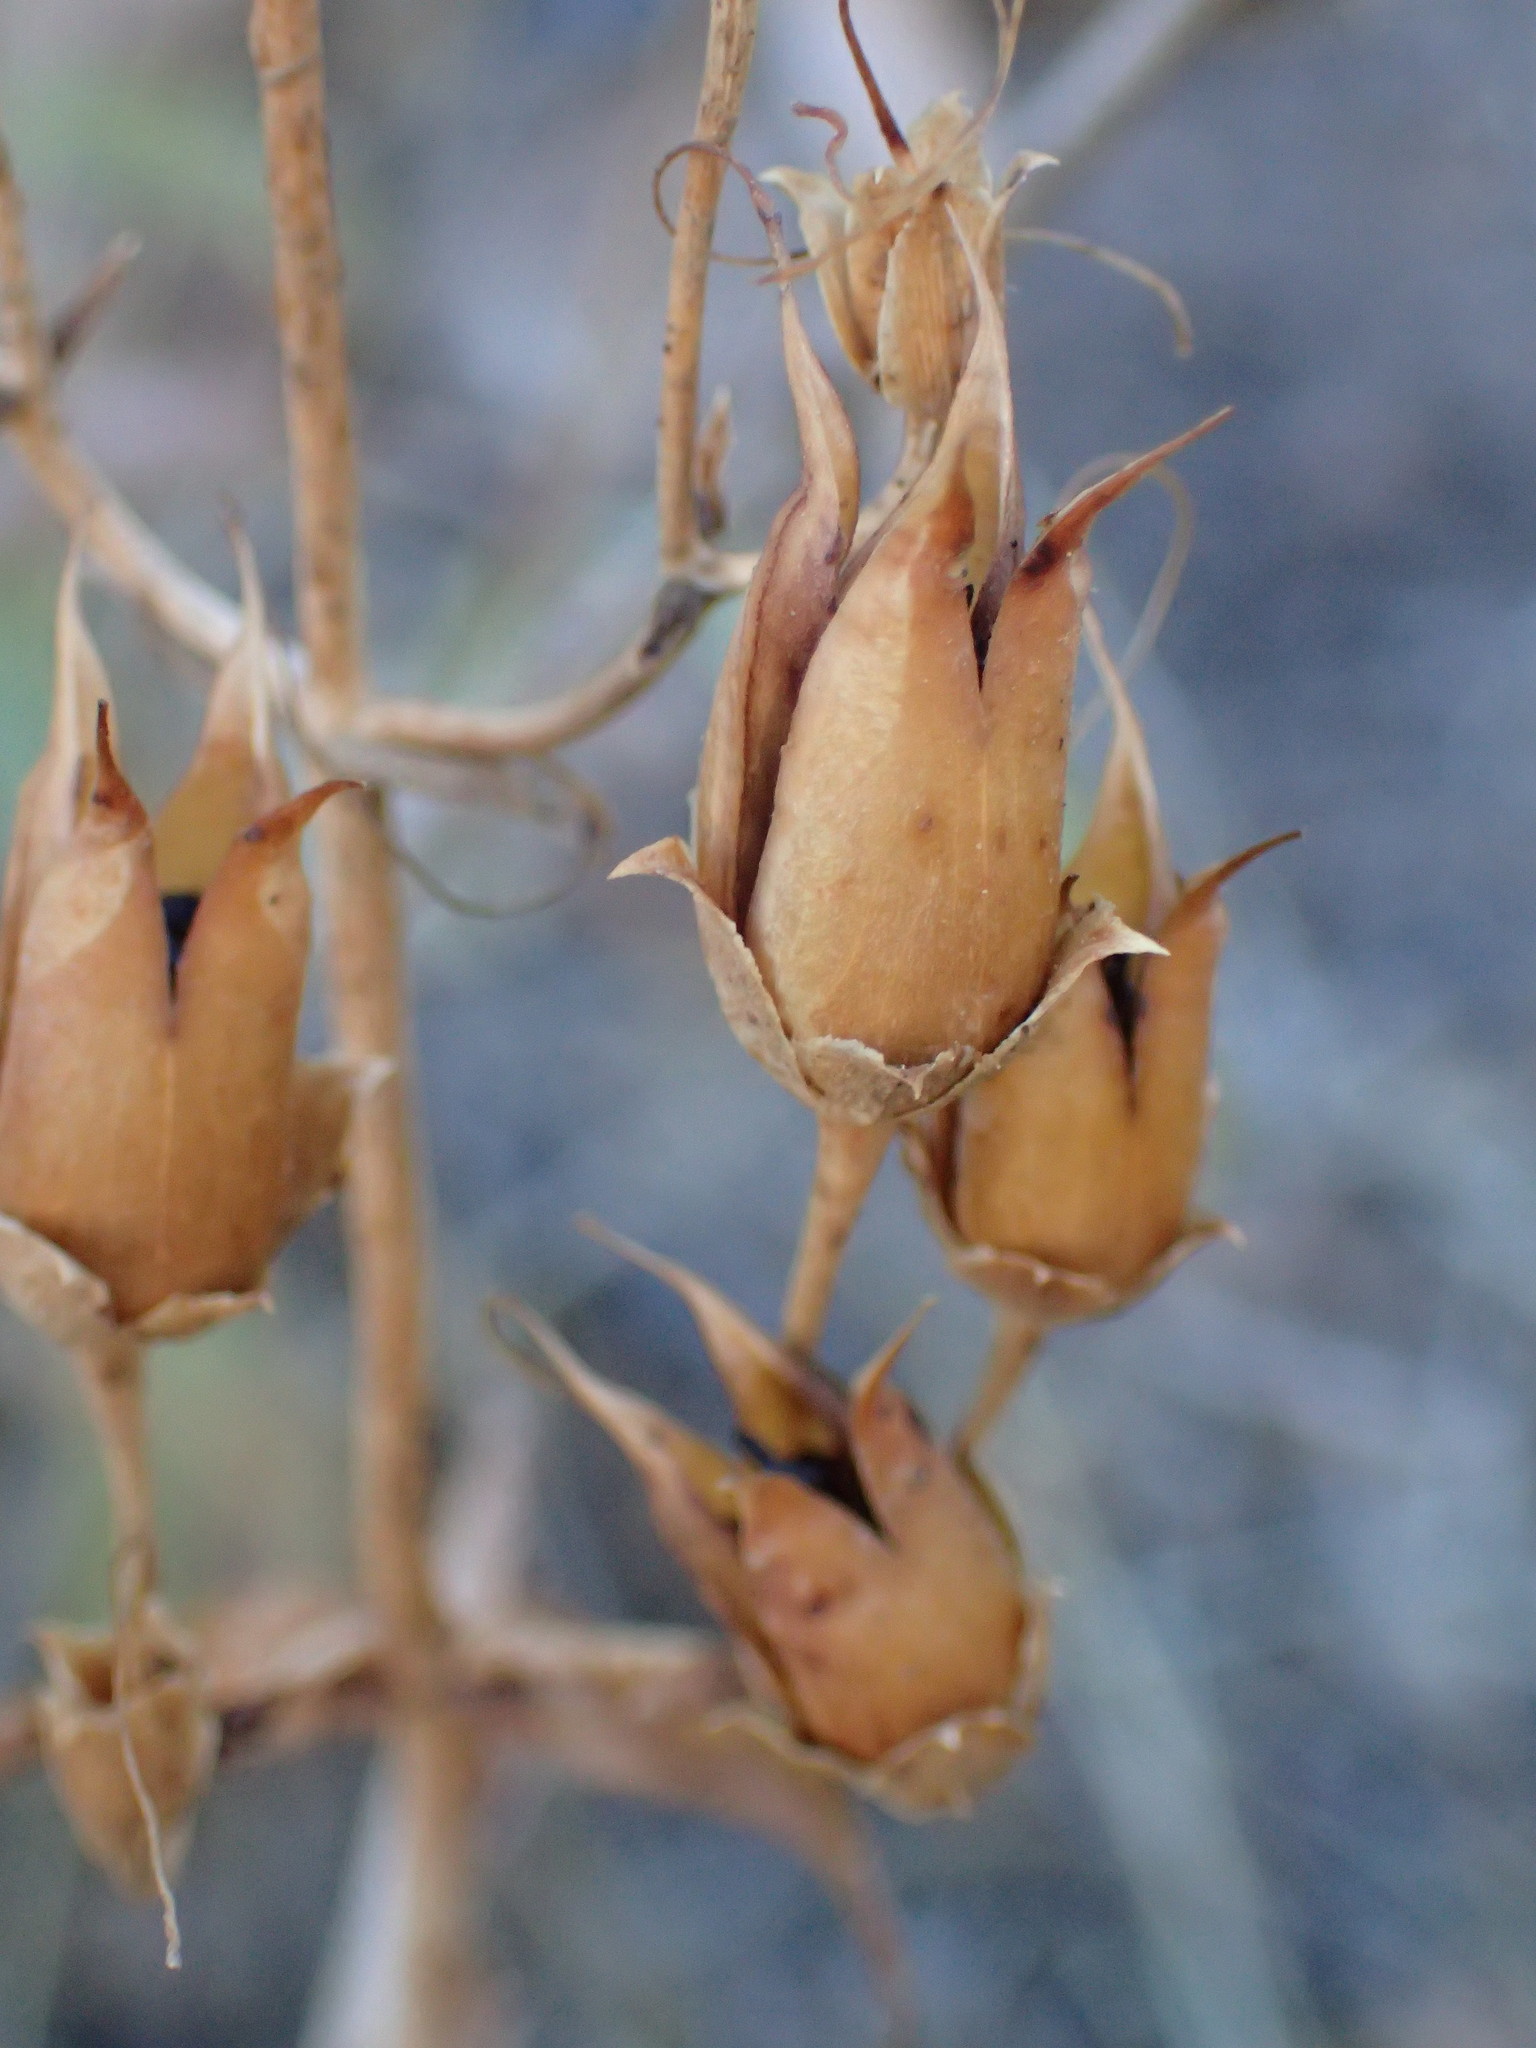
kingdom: Plantae
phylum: Tracheophyta
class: Magnoliopsida
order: Lamiales
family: Plantaginaceae
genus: Penstemon
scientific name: Penstemon grinnellii
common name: Grinnell's beardtongue
